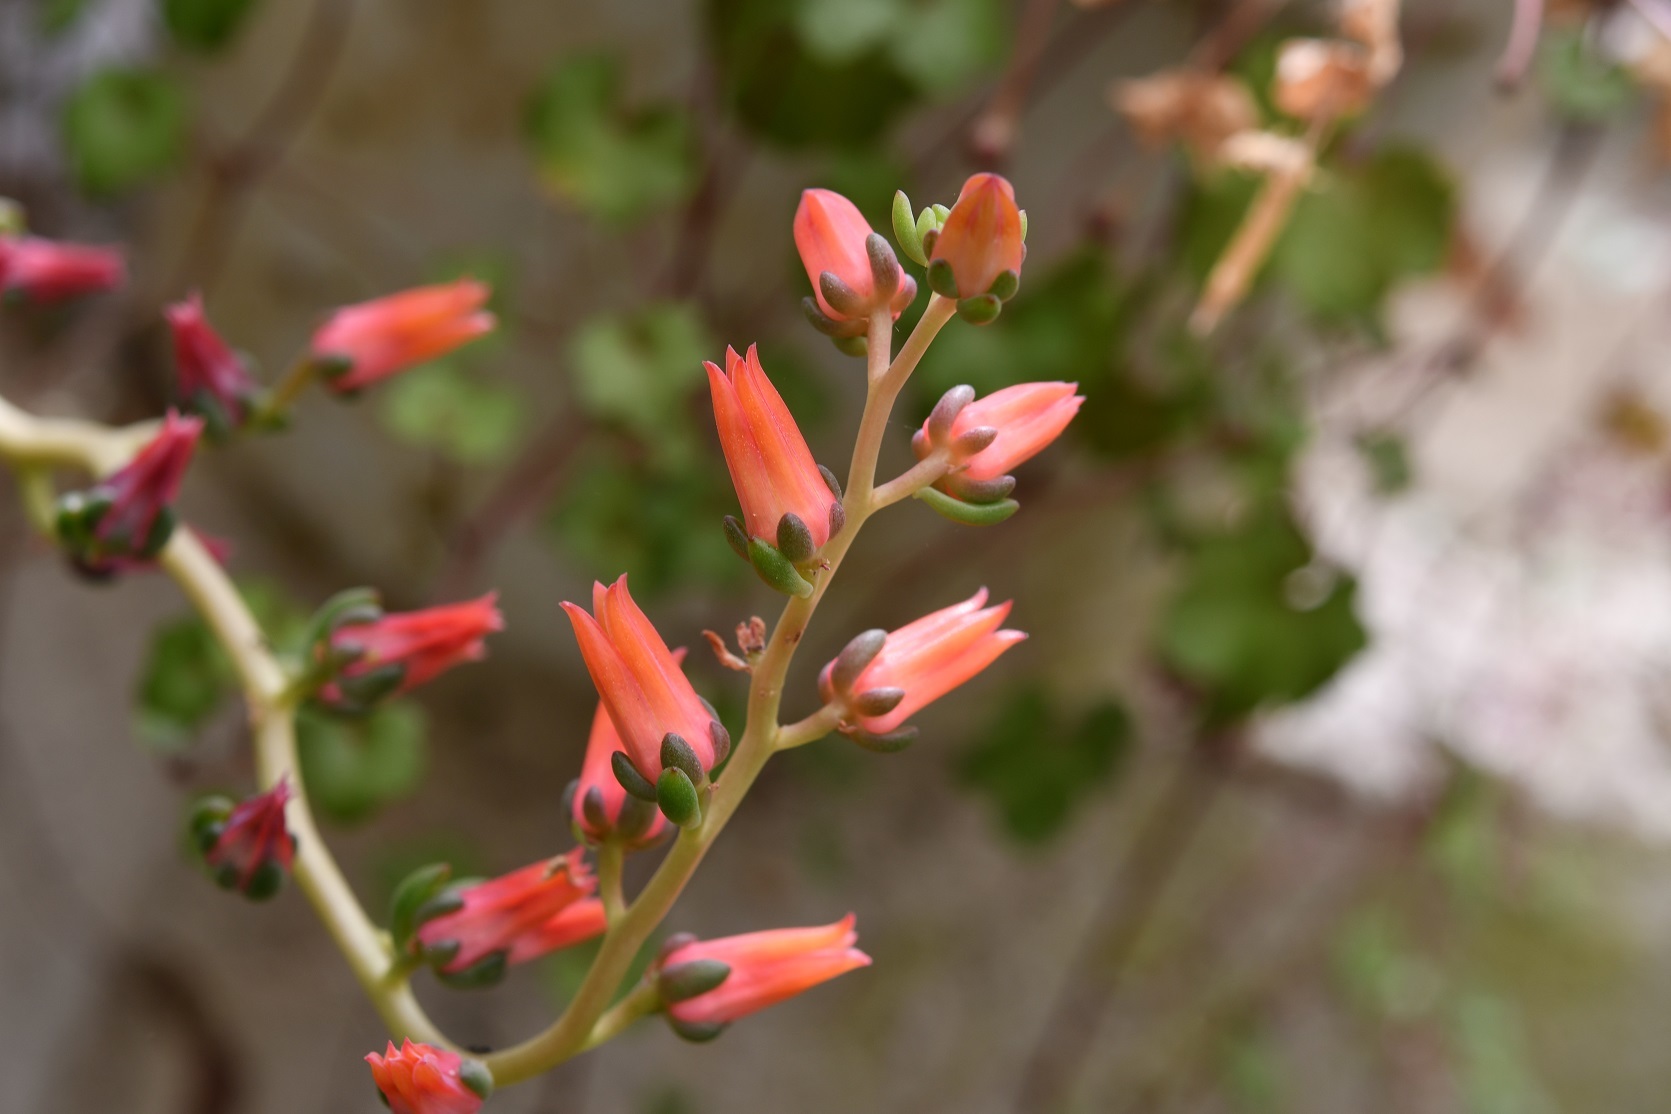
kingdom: Plantae
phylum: Tracheophyta
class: Magnoliopsida
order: Saxifragales
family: Crassulaceae
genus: Echeveria
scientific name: Echeveria goldmanii
